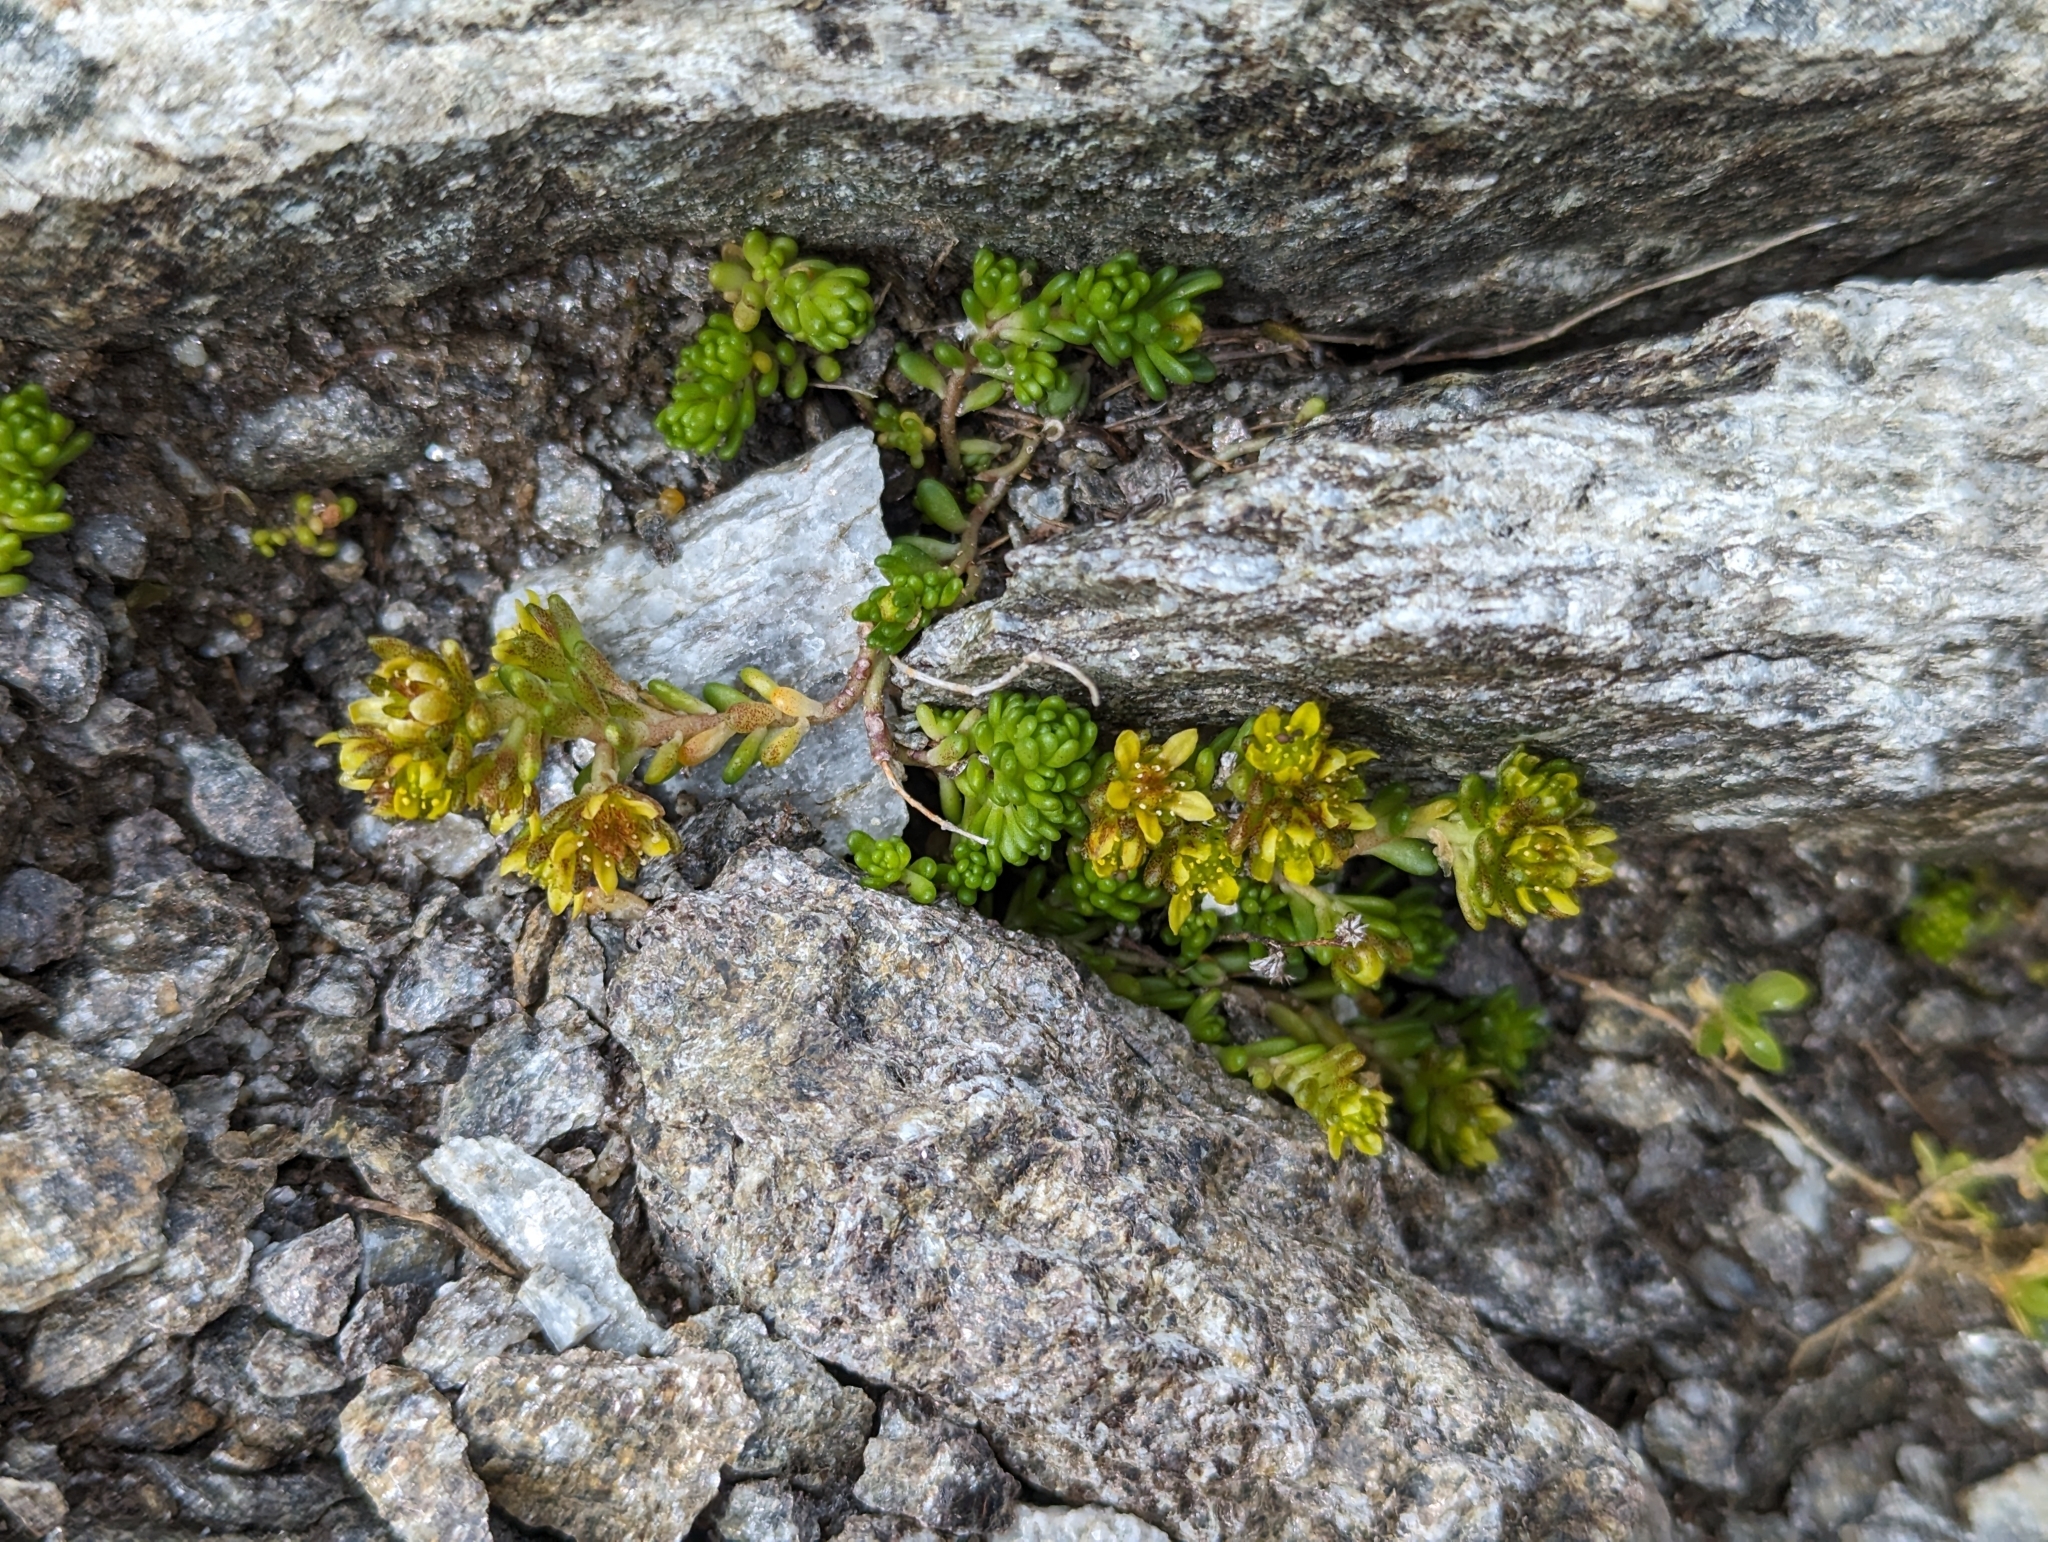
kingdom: Plantae
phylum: Tracheophyta
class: Magnoliopsida
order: Saxifragales
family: Crassulaceae
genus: Sedum
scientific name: Sedum alpestre
